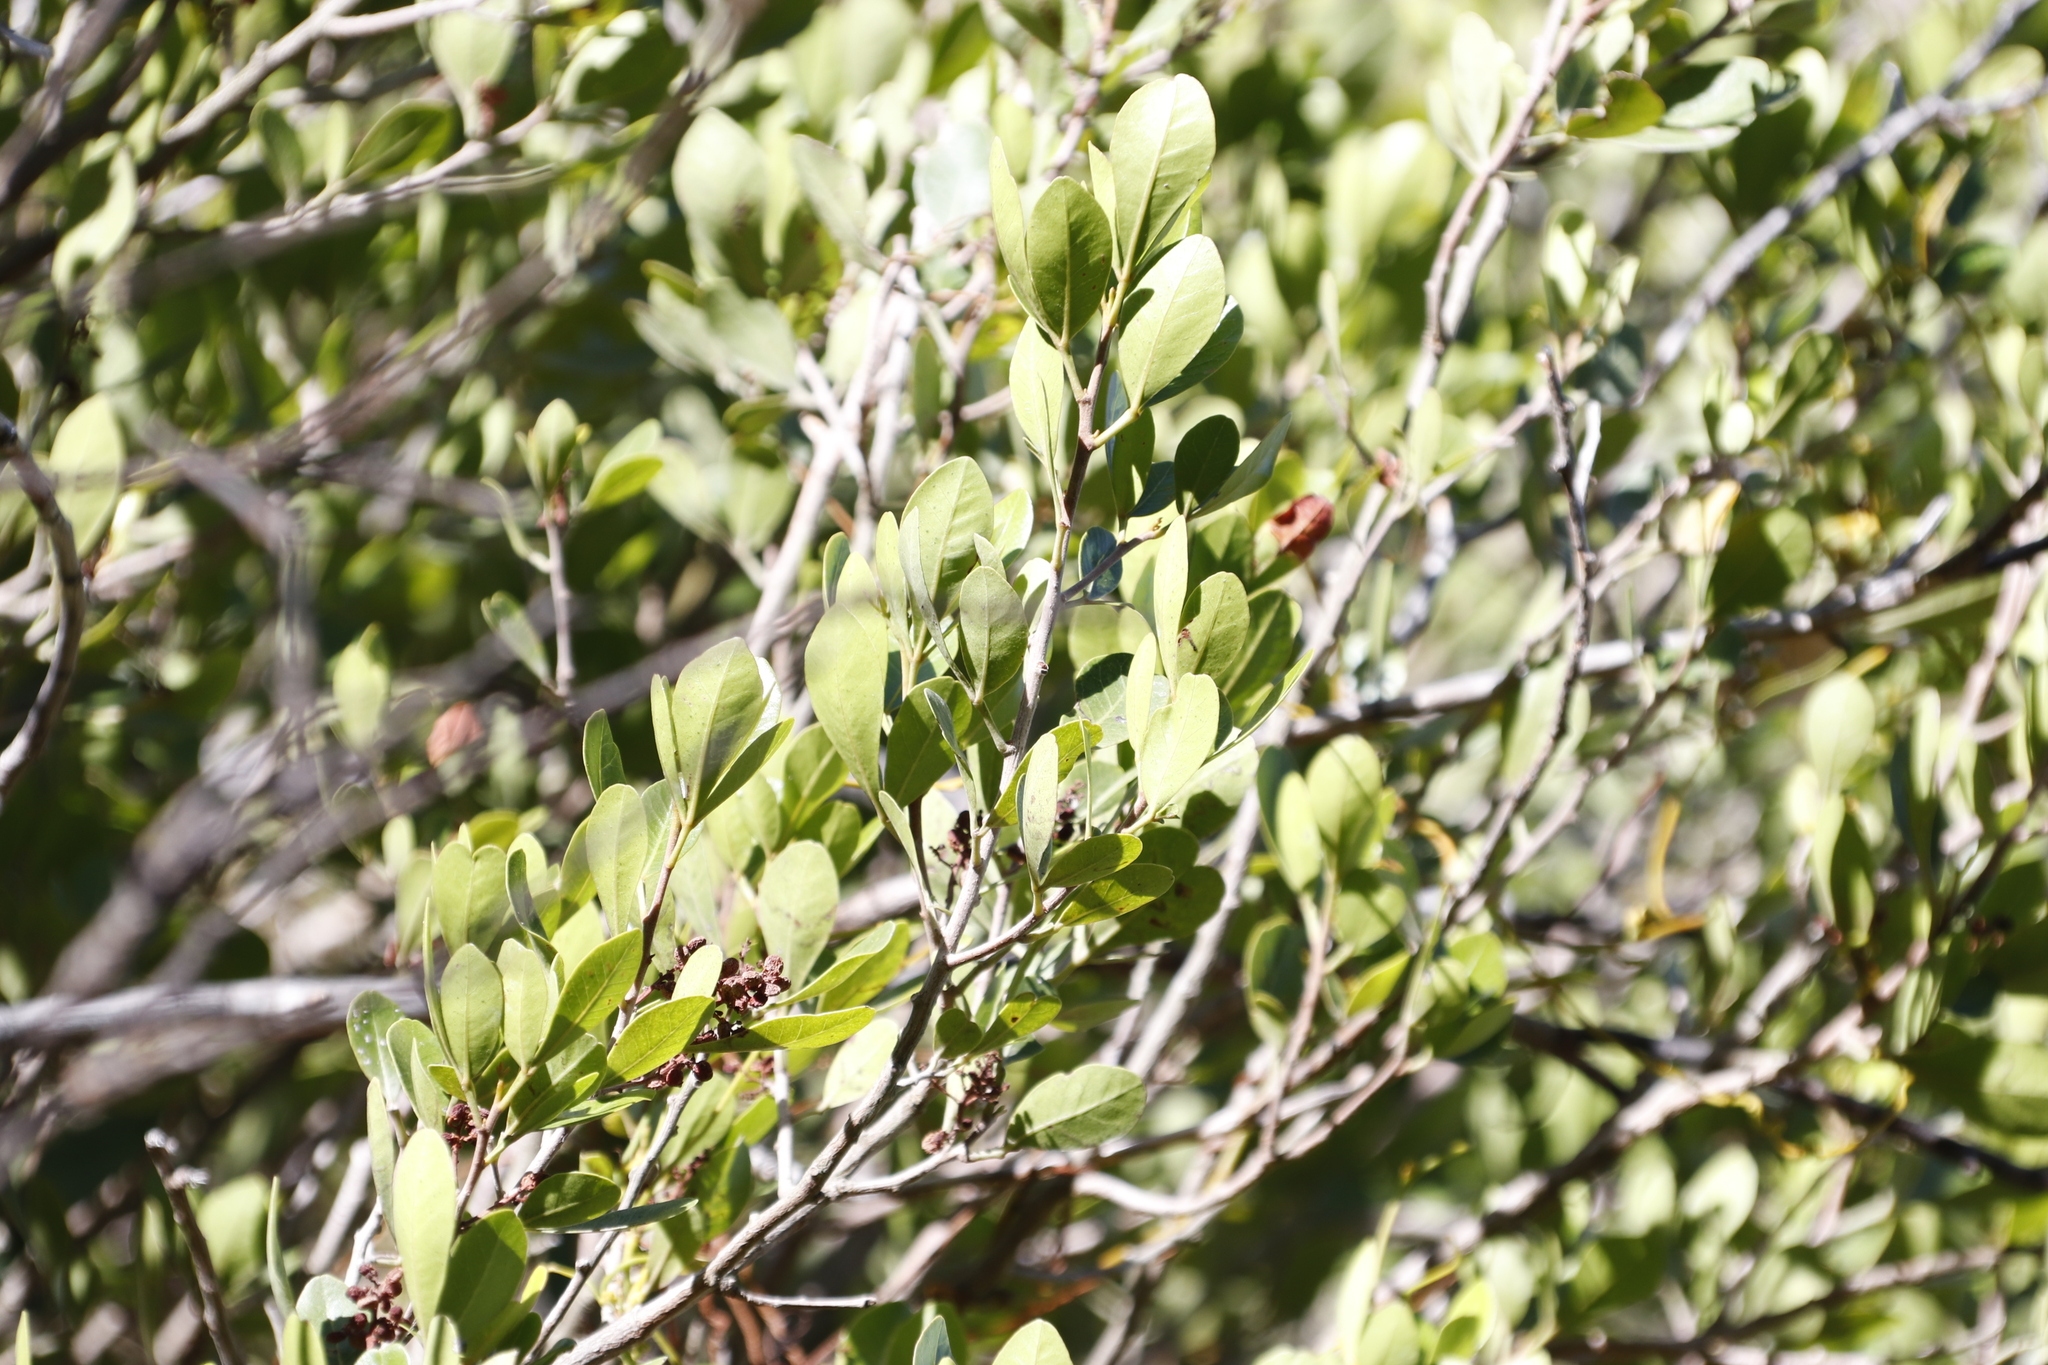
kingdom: Plantae
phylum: Tracheophyta
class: Magnoliopsida
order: Sapindales
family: Anacardiaceae
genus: Searsia
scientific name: Searsia lucida
